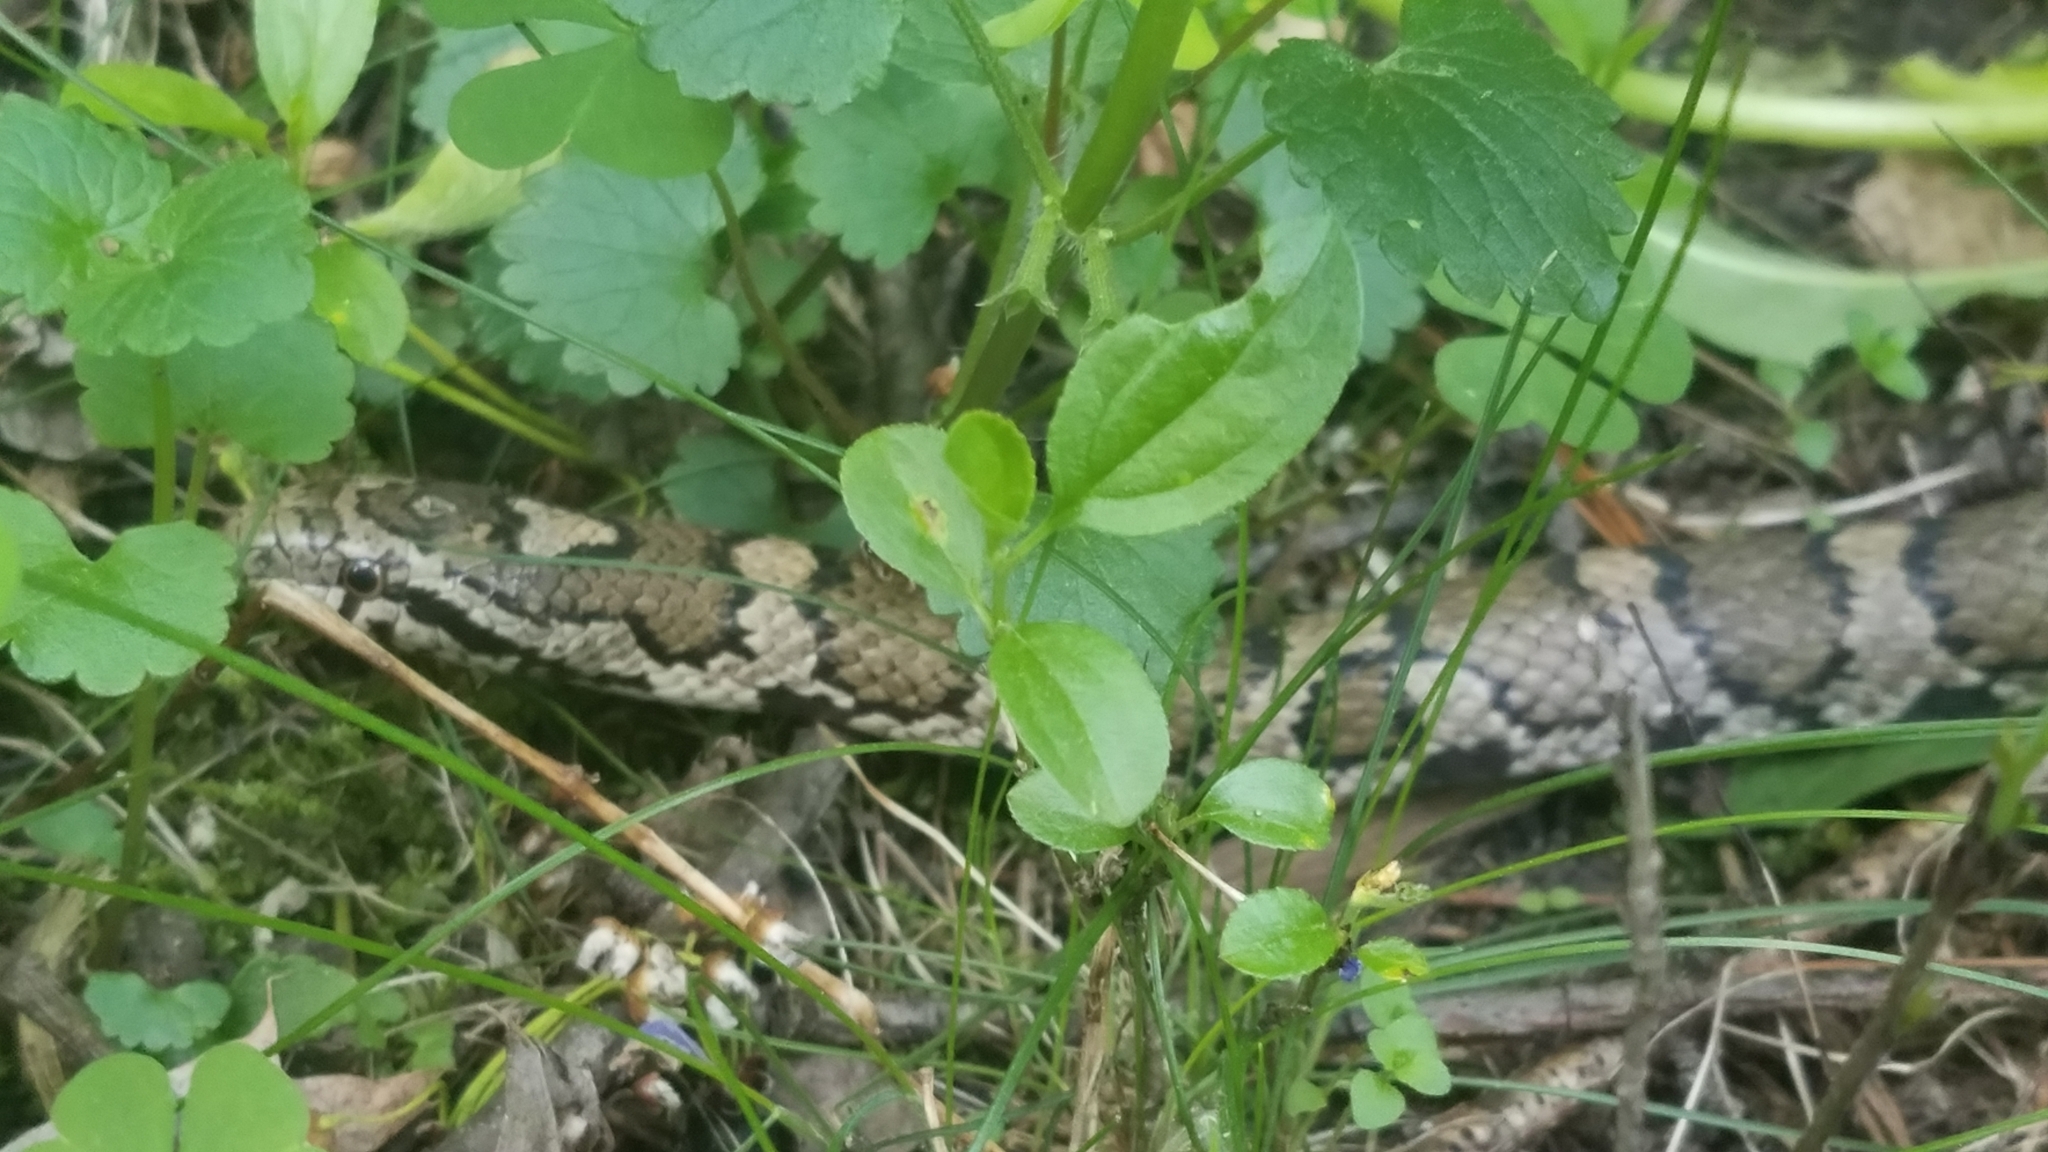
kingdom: Animalia
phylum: Chordata
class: Squamata
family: Colubridae
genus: Lampropeltis
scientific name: Lampropeltis triangulum
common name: Eastern milksnake
